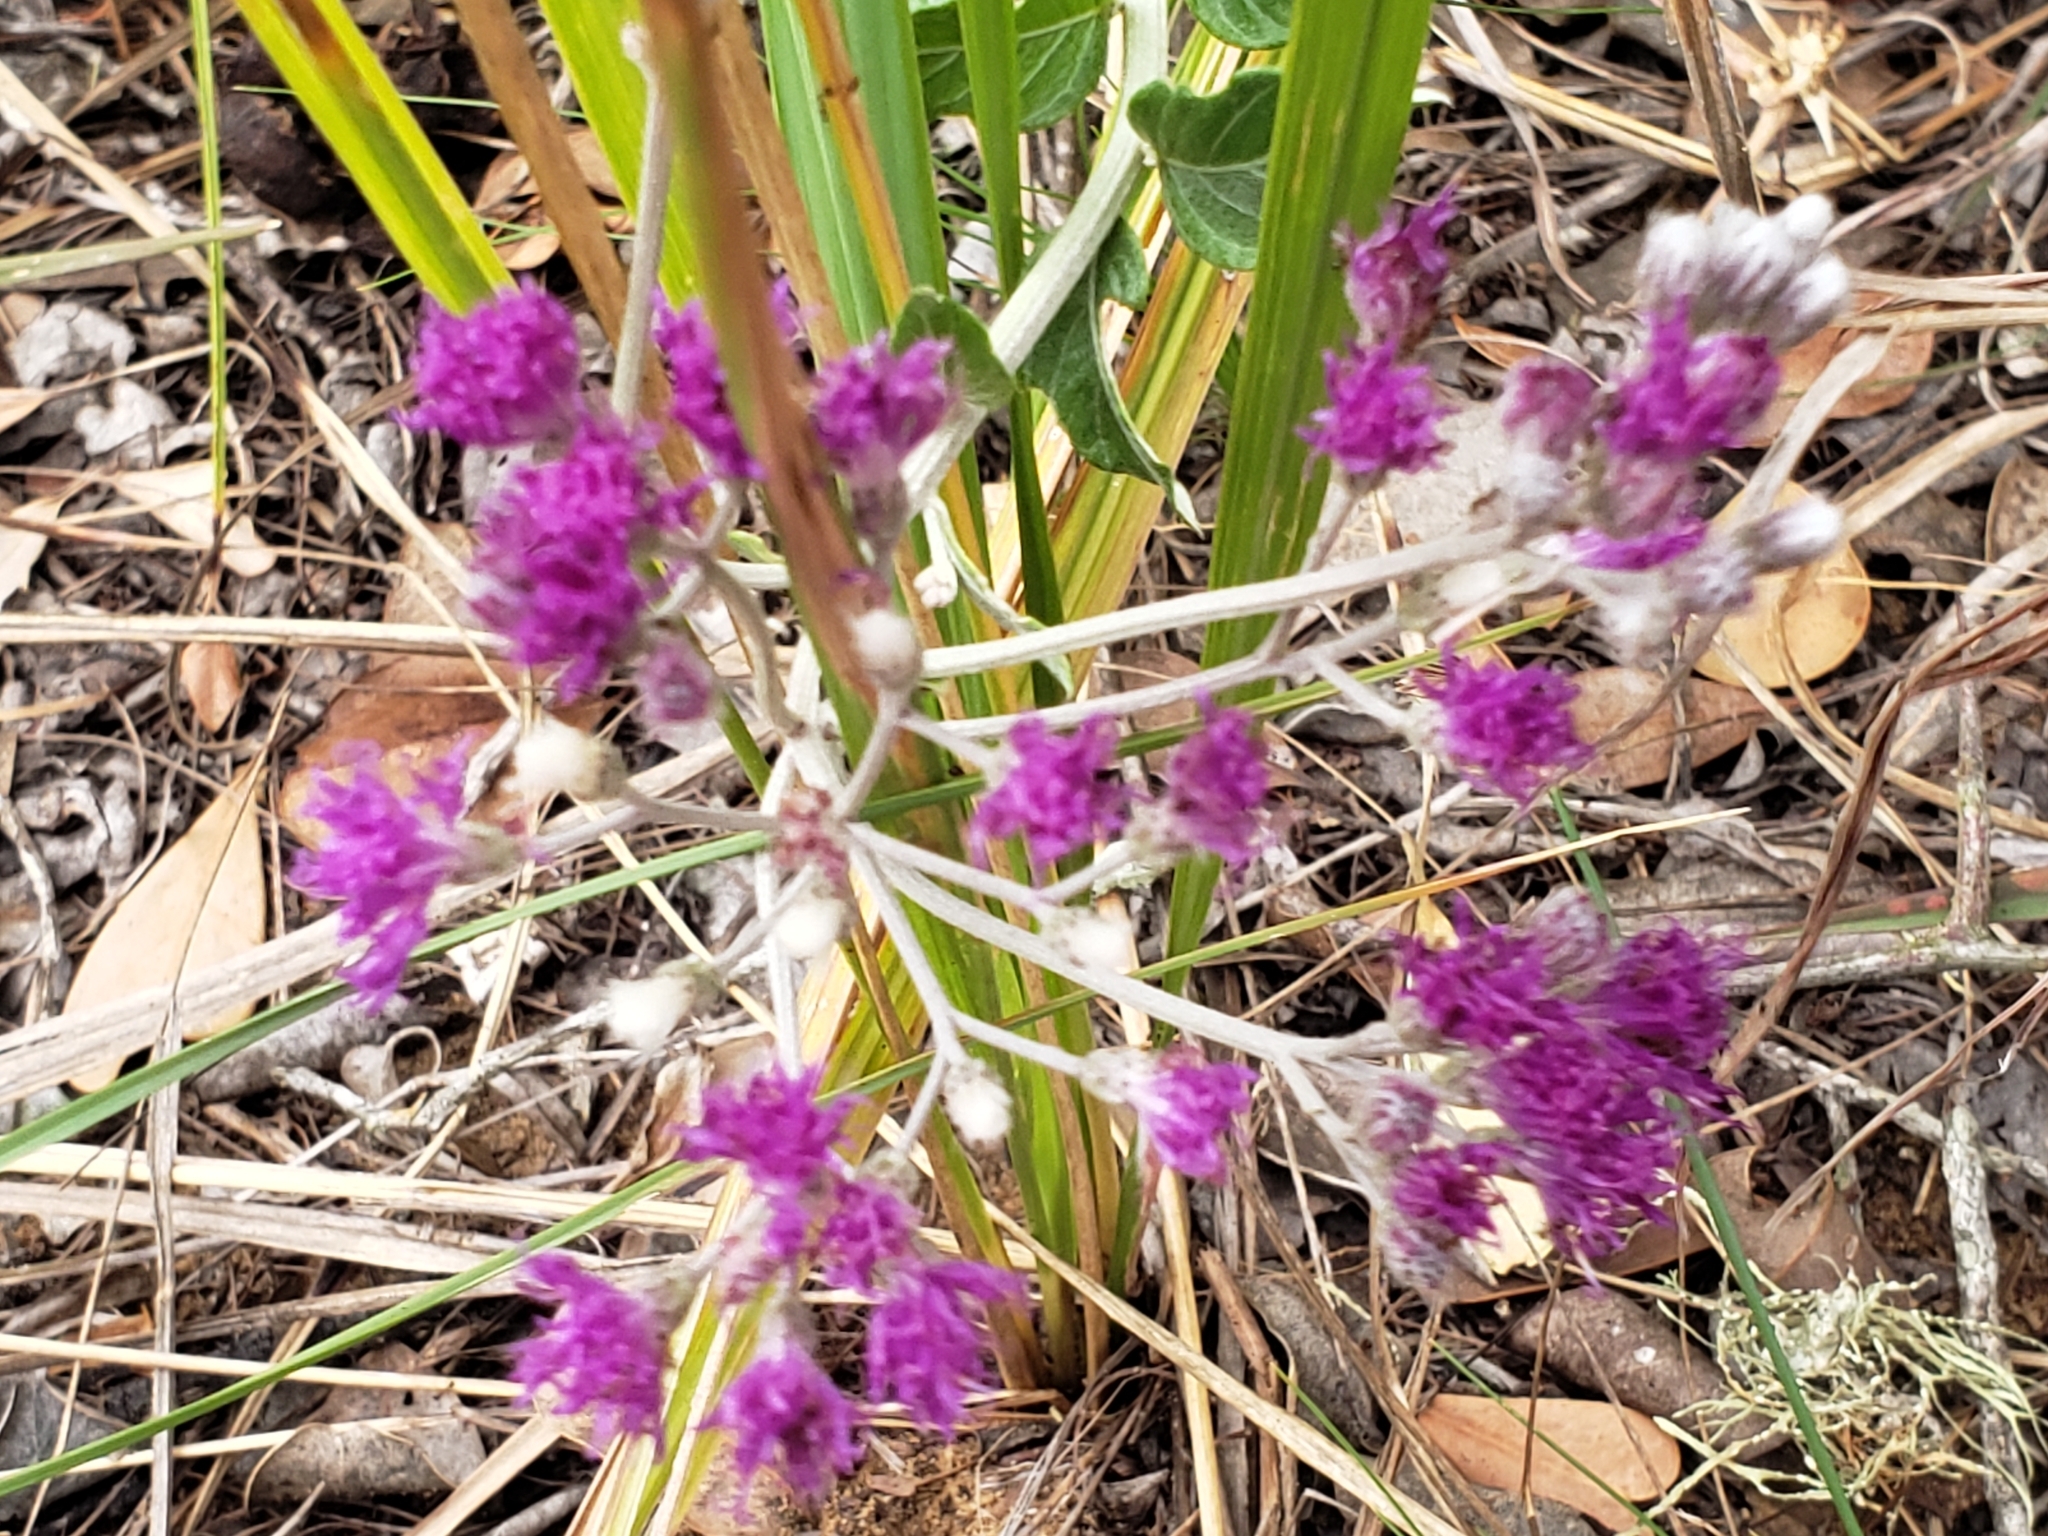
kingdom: Plantae
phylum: Tracheophyta
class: Magnoliopsida
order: Asterales
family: Asteraceae
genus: Hilliardiella
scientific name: Hilliardiella oligocephala
